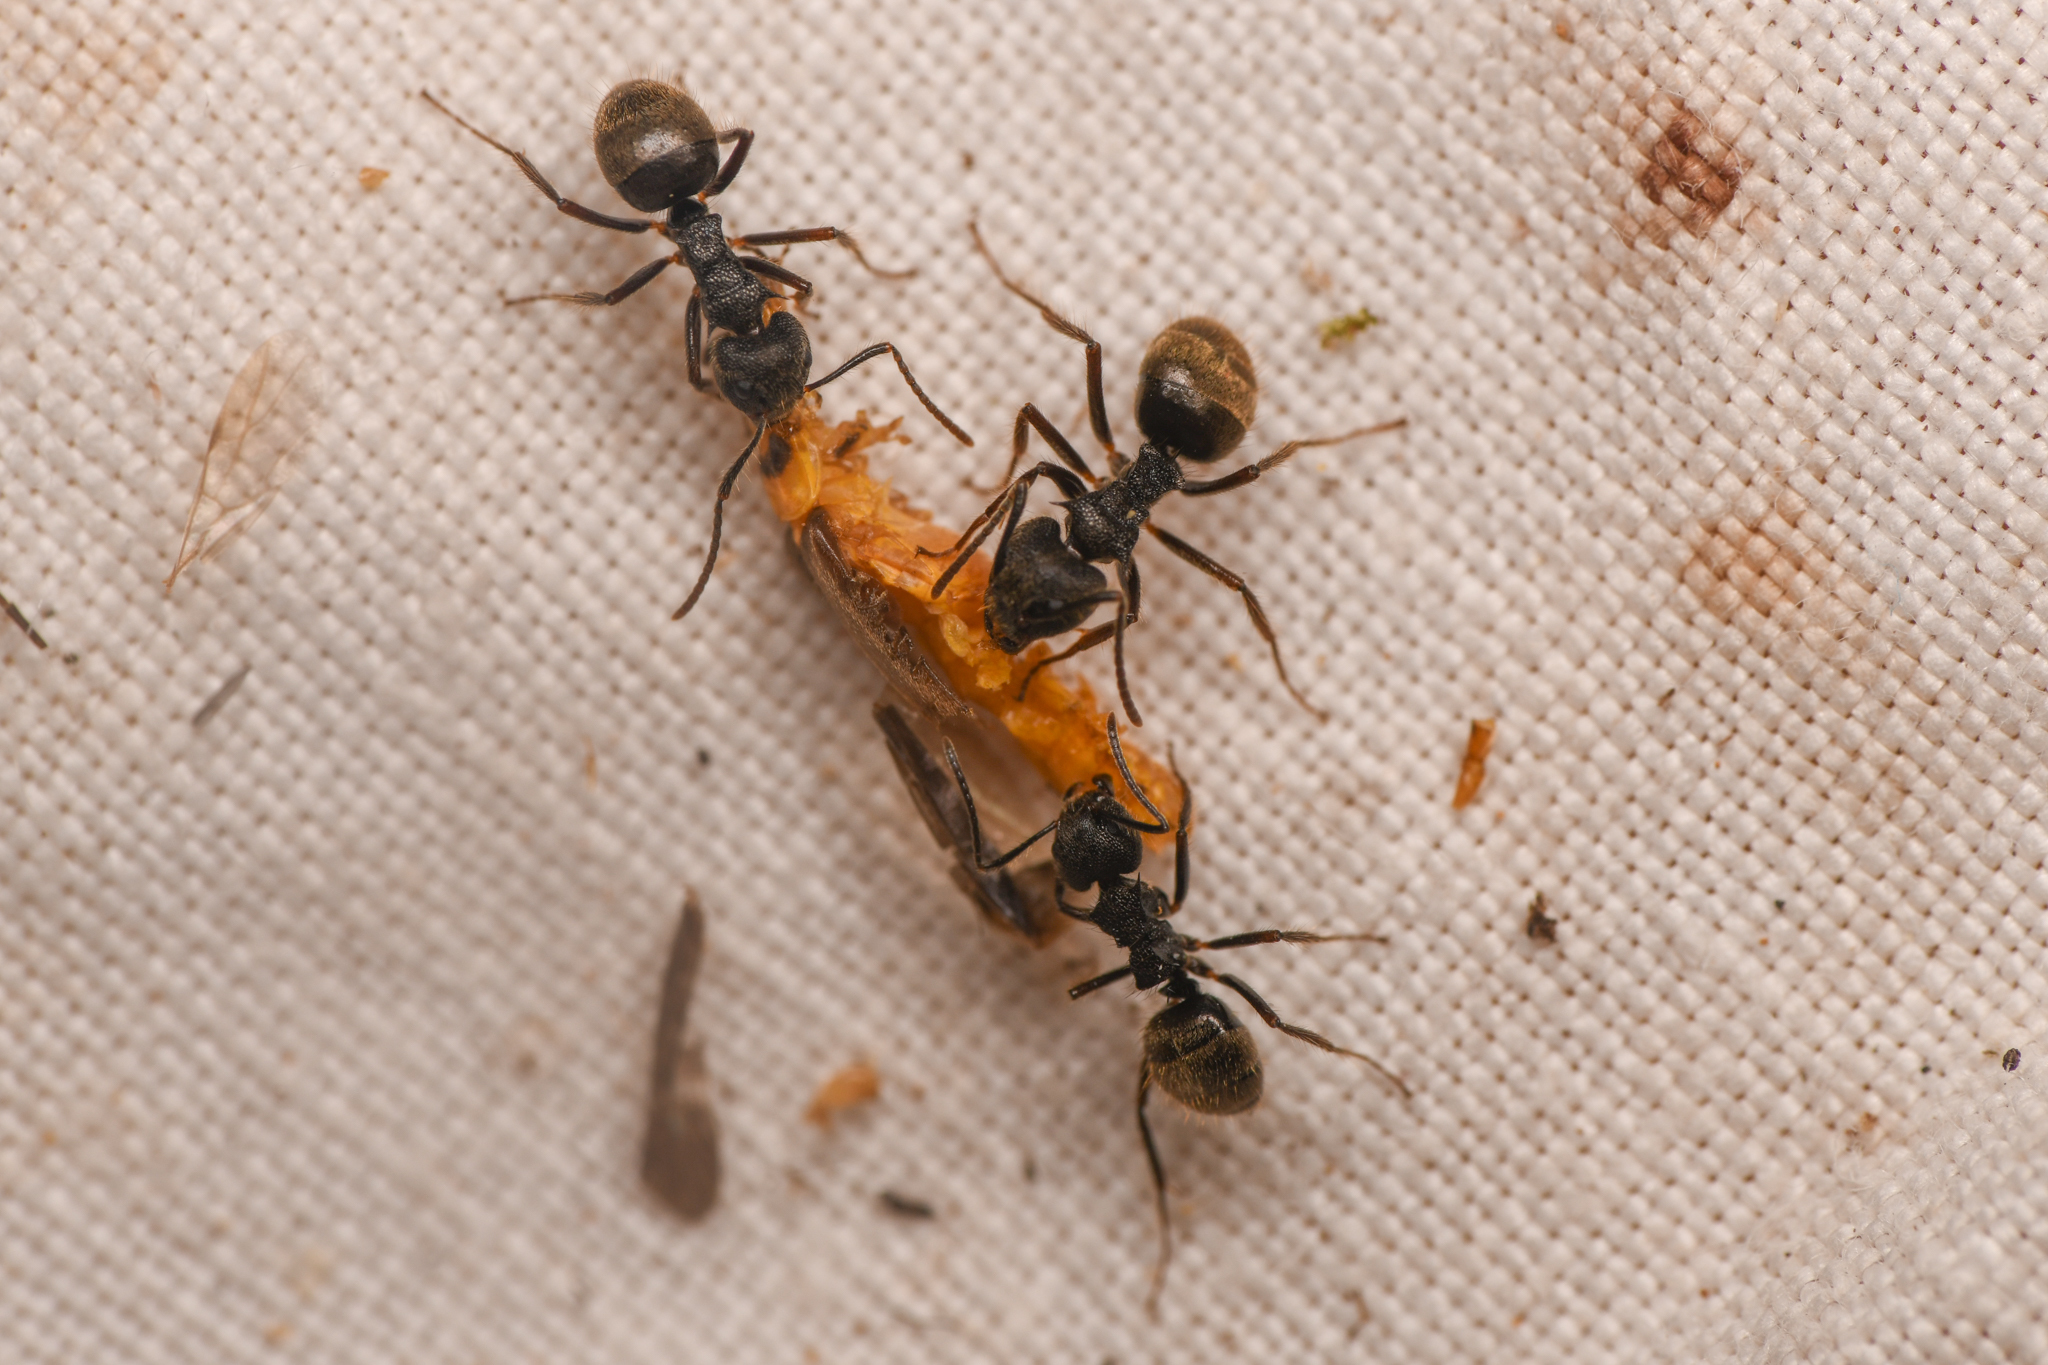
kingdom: Animalia
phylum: Arthropoda
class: Insecta
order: Hymenoptera
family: Formicidae
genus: Dolichoderus
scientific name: Dolichoderus bispinosus
